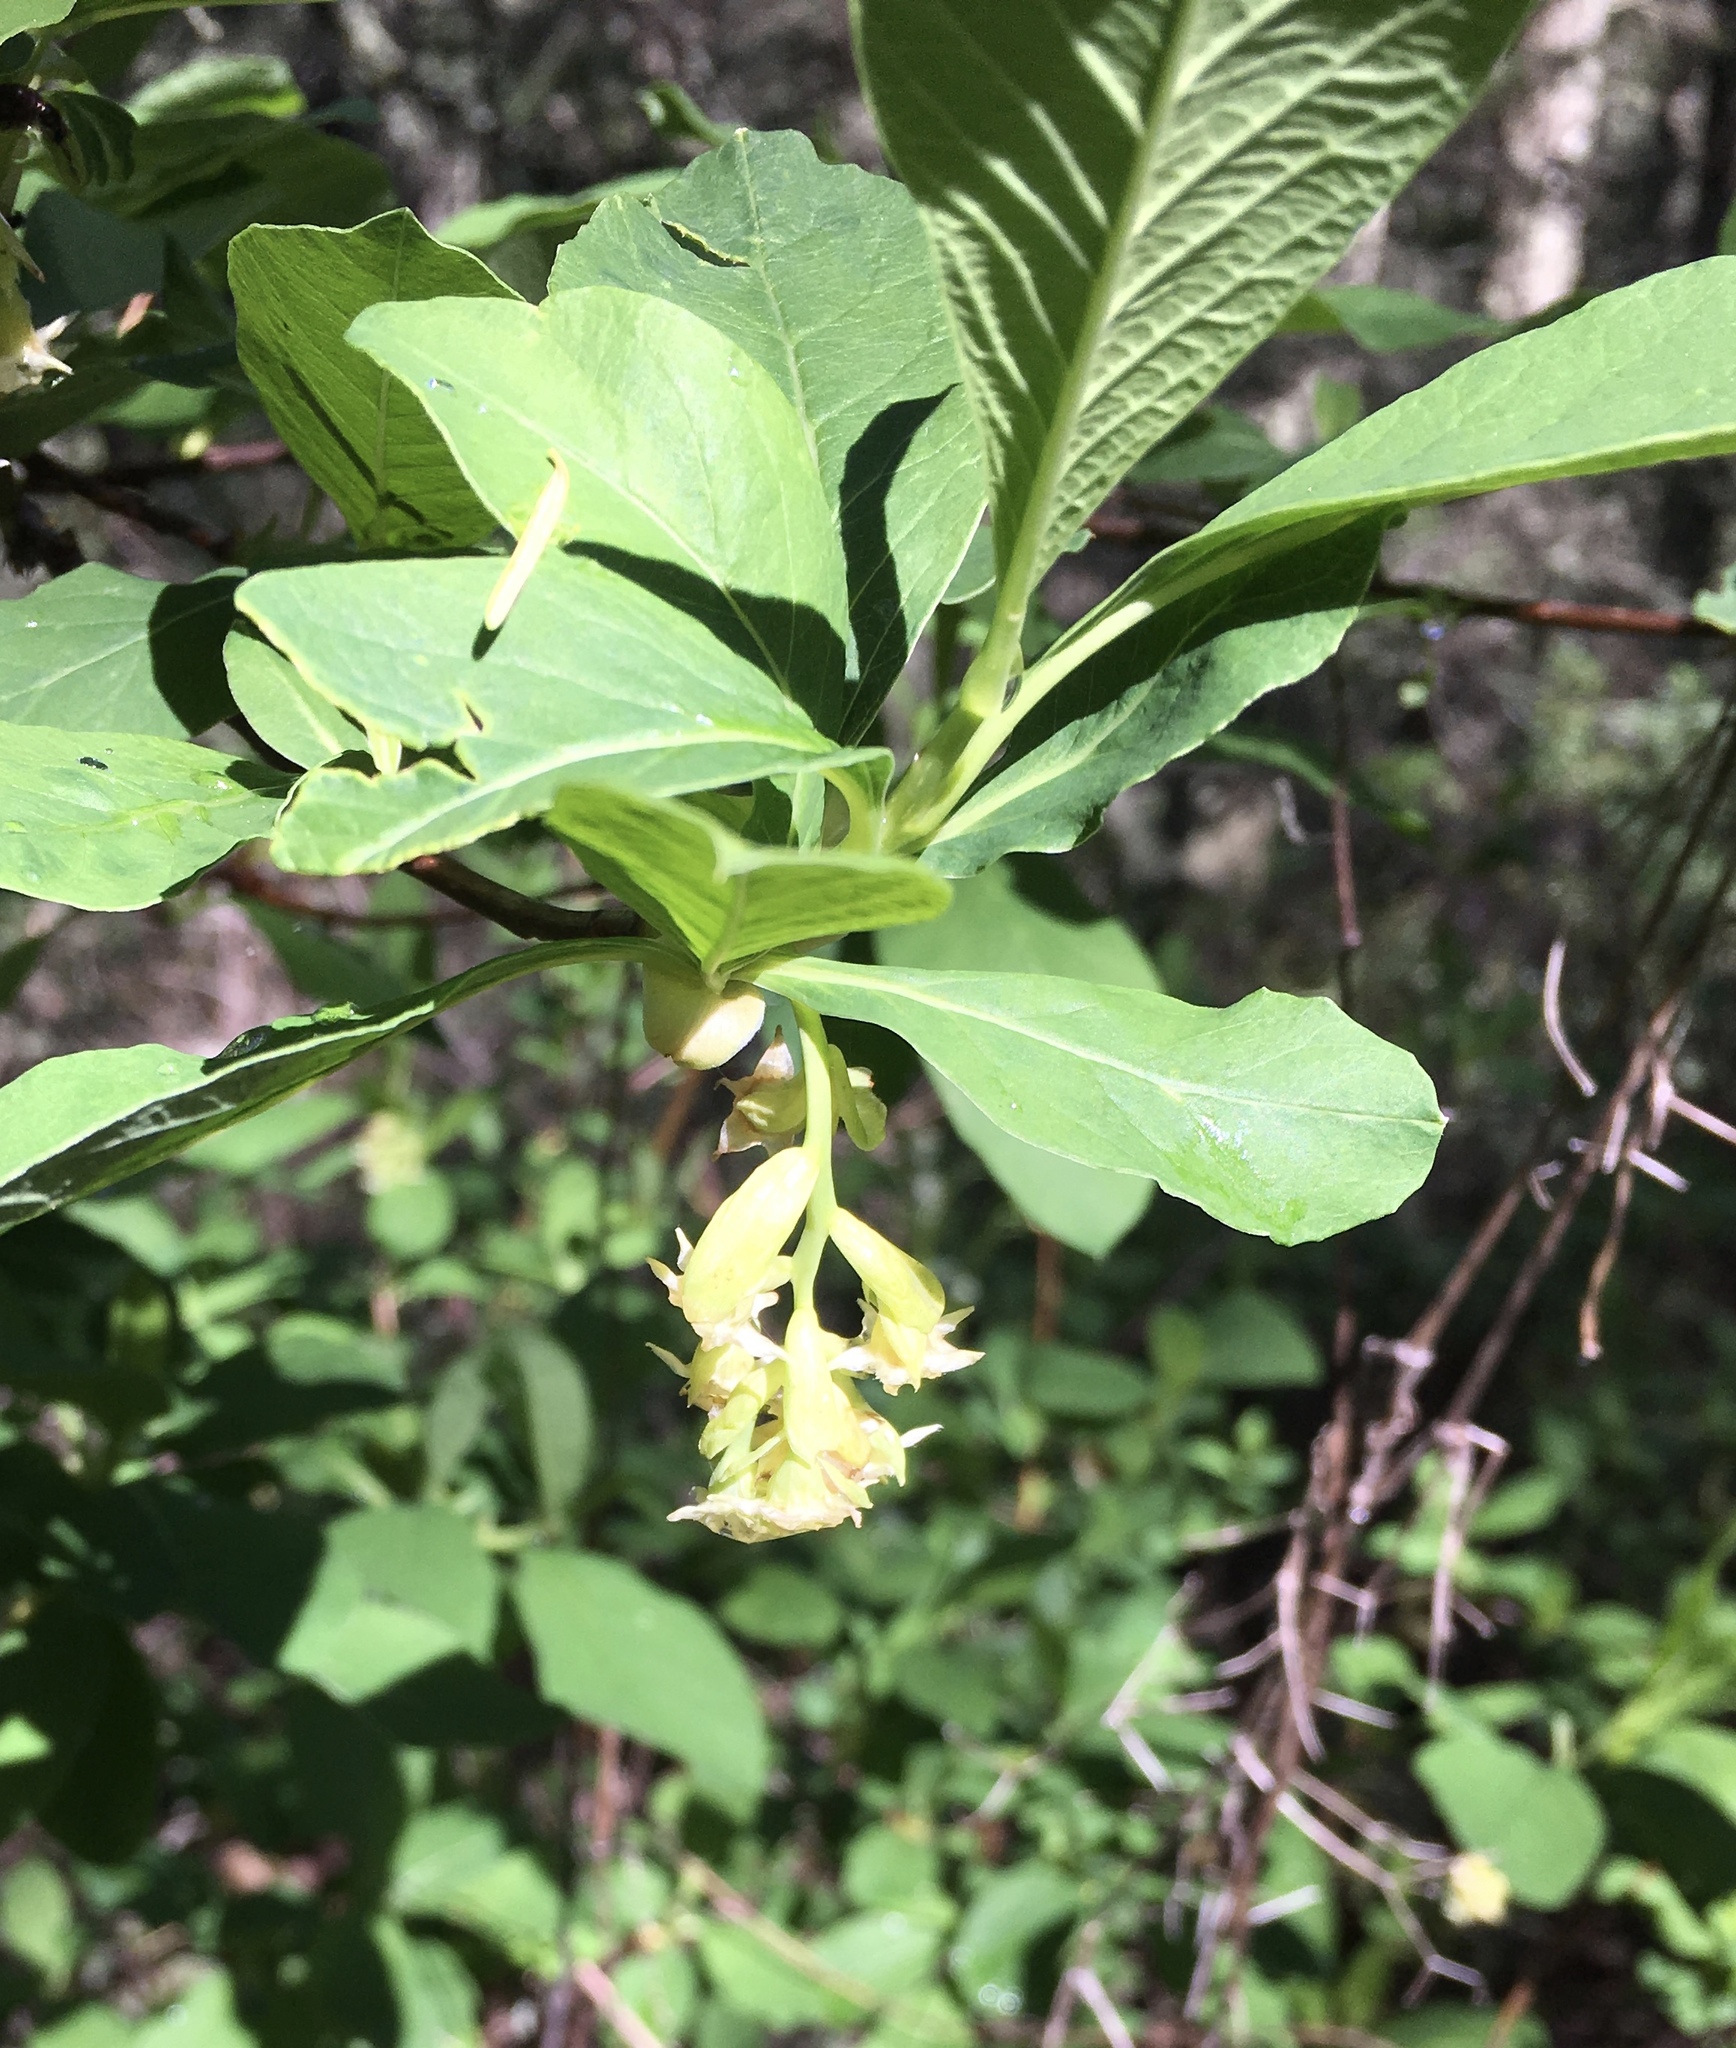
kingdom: Plantae
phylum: Tracheophyta
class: Magnoliopsida
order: Rosales
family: Rosaceae
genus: Oemleria
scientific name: Oemleria cerasiformis
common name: Osoberry
